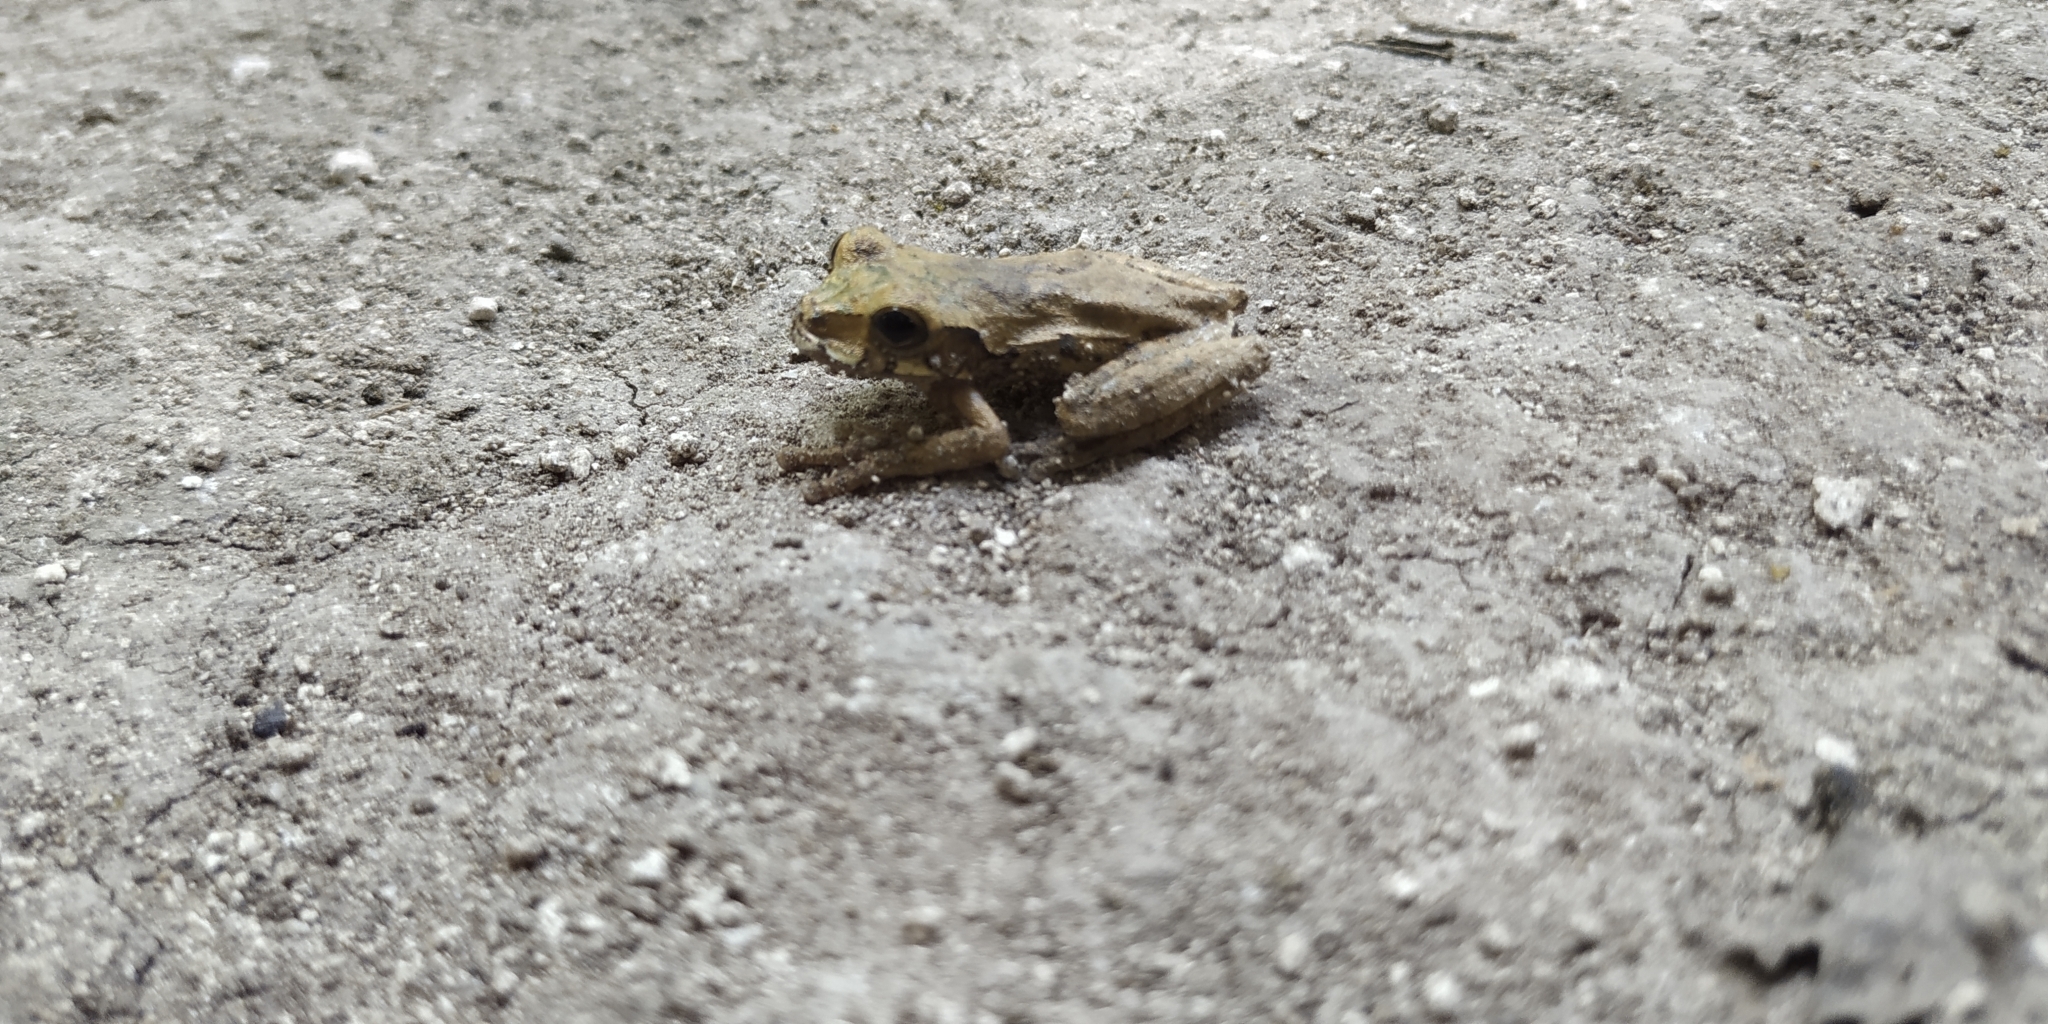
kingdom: Animalia
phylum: Chordata
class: Amphibia
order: Anura
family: Hylidae
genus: Smilisca
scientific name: Smilisca baudinii
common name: Mexican smilisca
